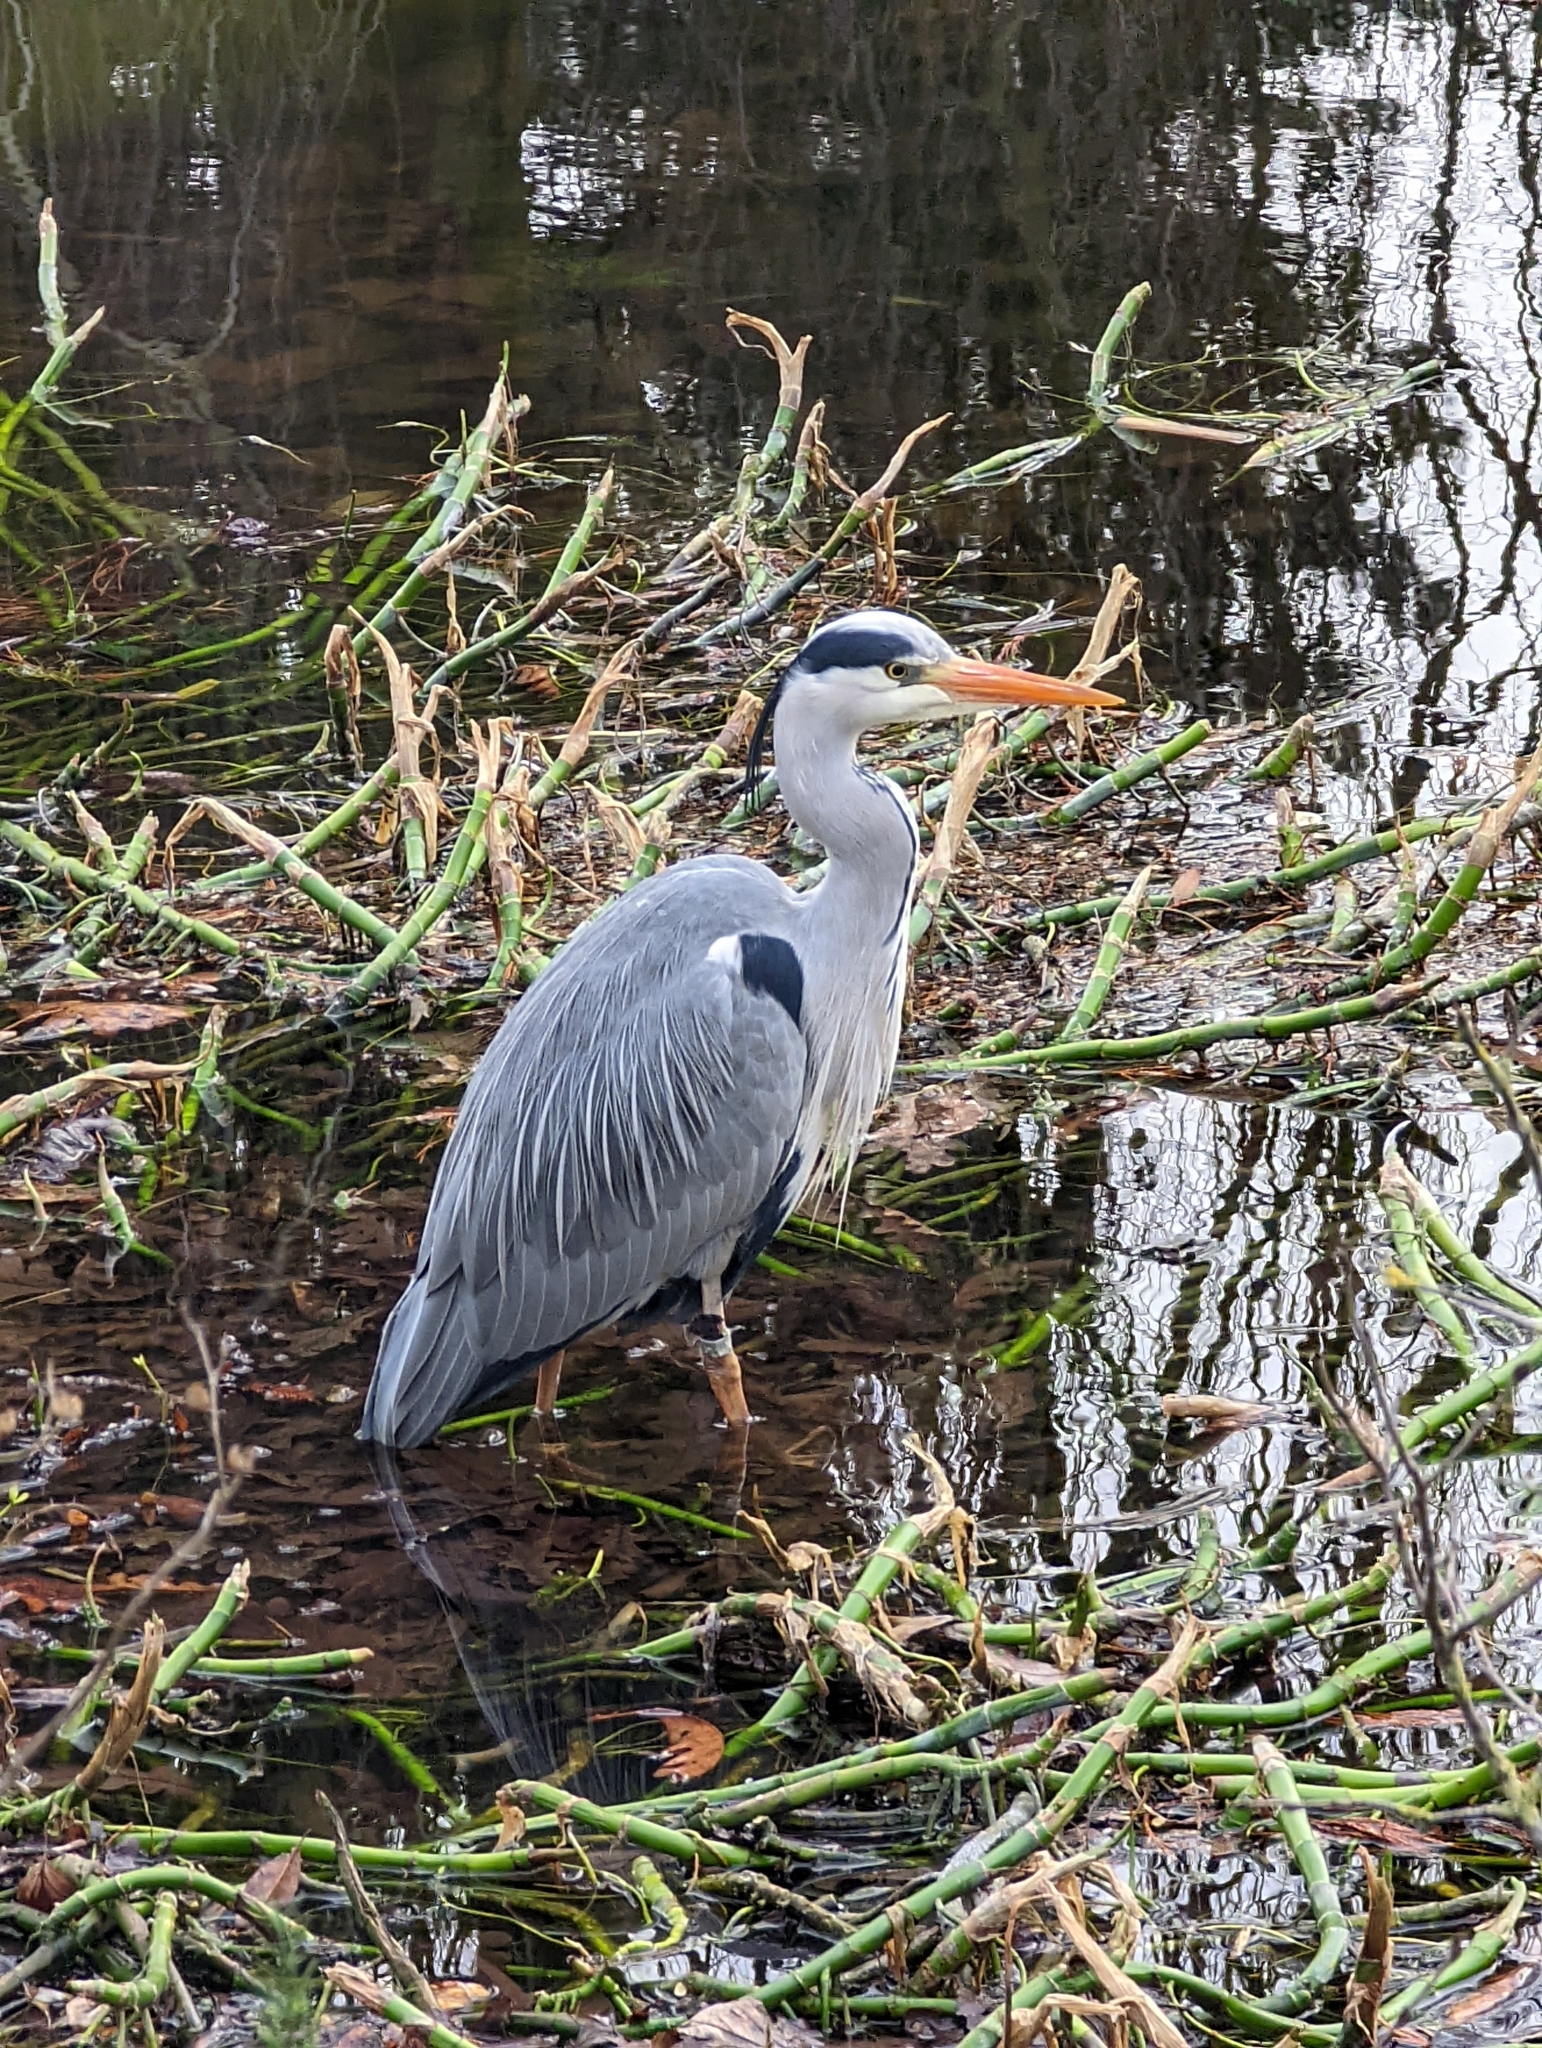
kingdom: Animalia
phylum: Chordata
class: Aves
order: Pelecaniformes
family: Ardeidae
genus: Ardea
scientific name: Ardea cinerea
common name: Grey heron
